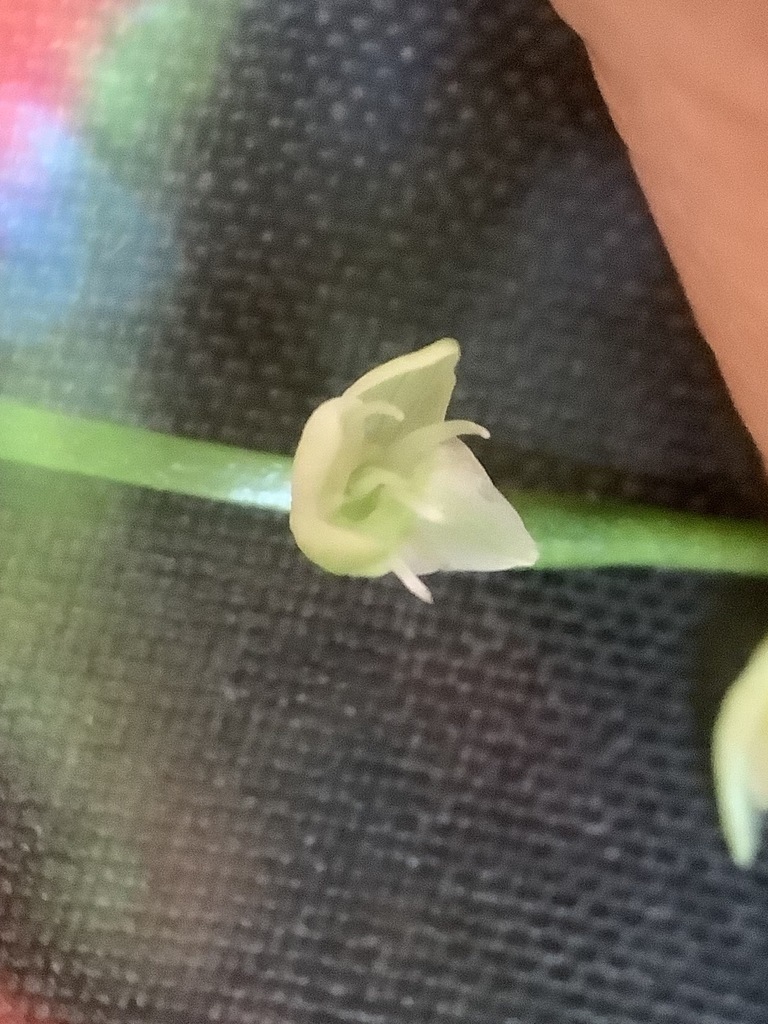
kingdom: Plantae
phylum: Tracheophyta
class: Magnoliopsida
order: Caryophyllales
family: Polygonaceae
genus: Persicaria
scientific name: Persicaria virginiana
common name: Jumpseed
